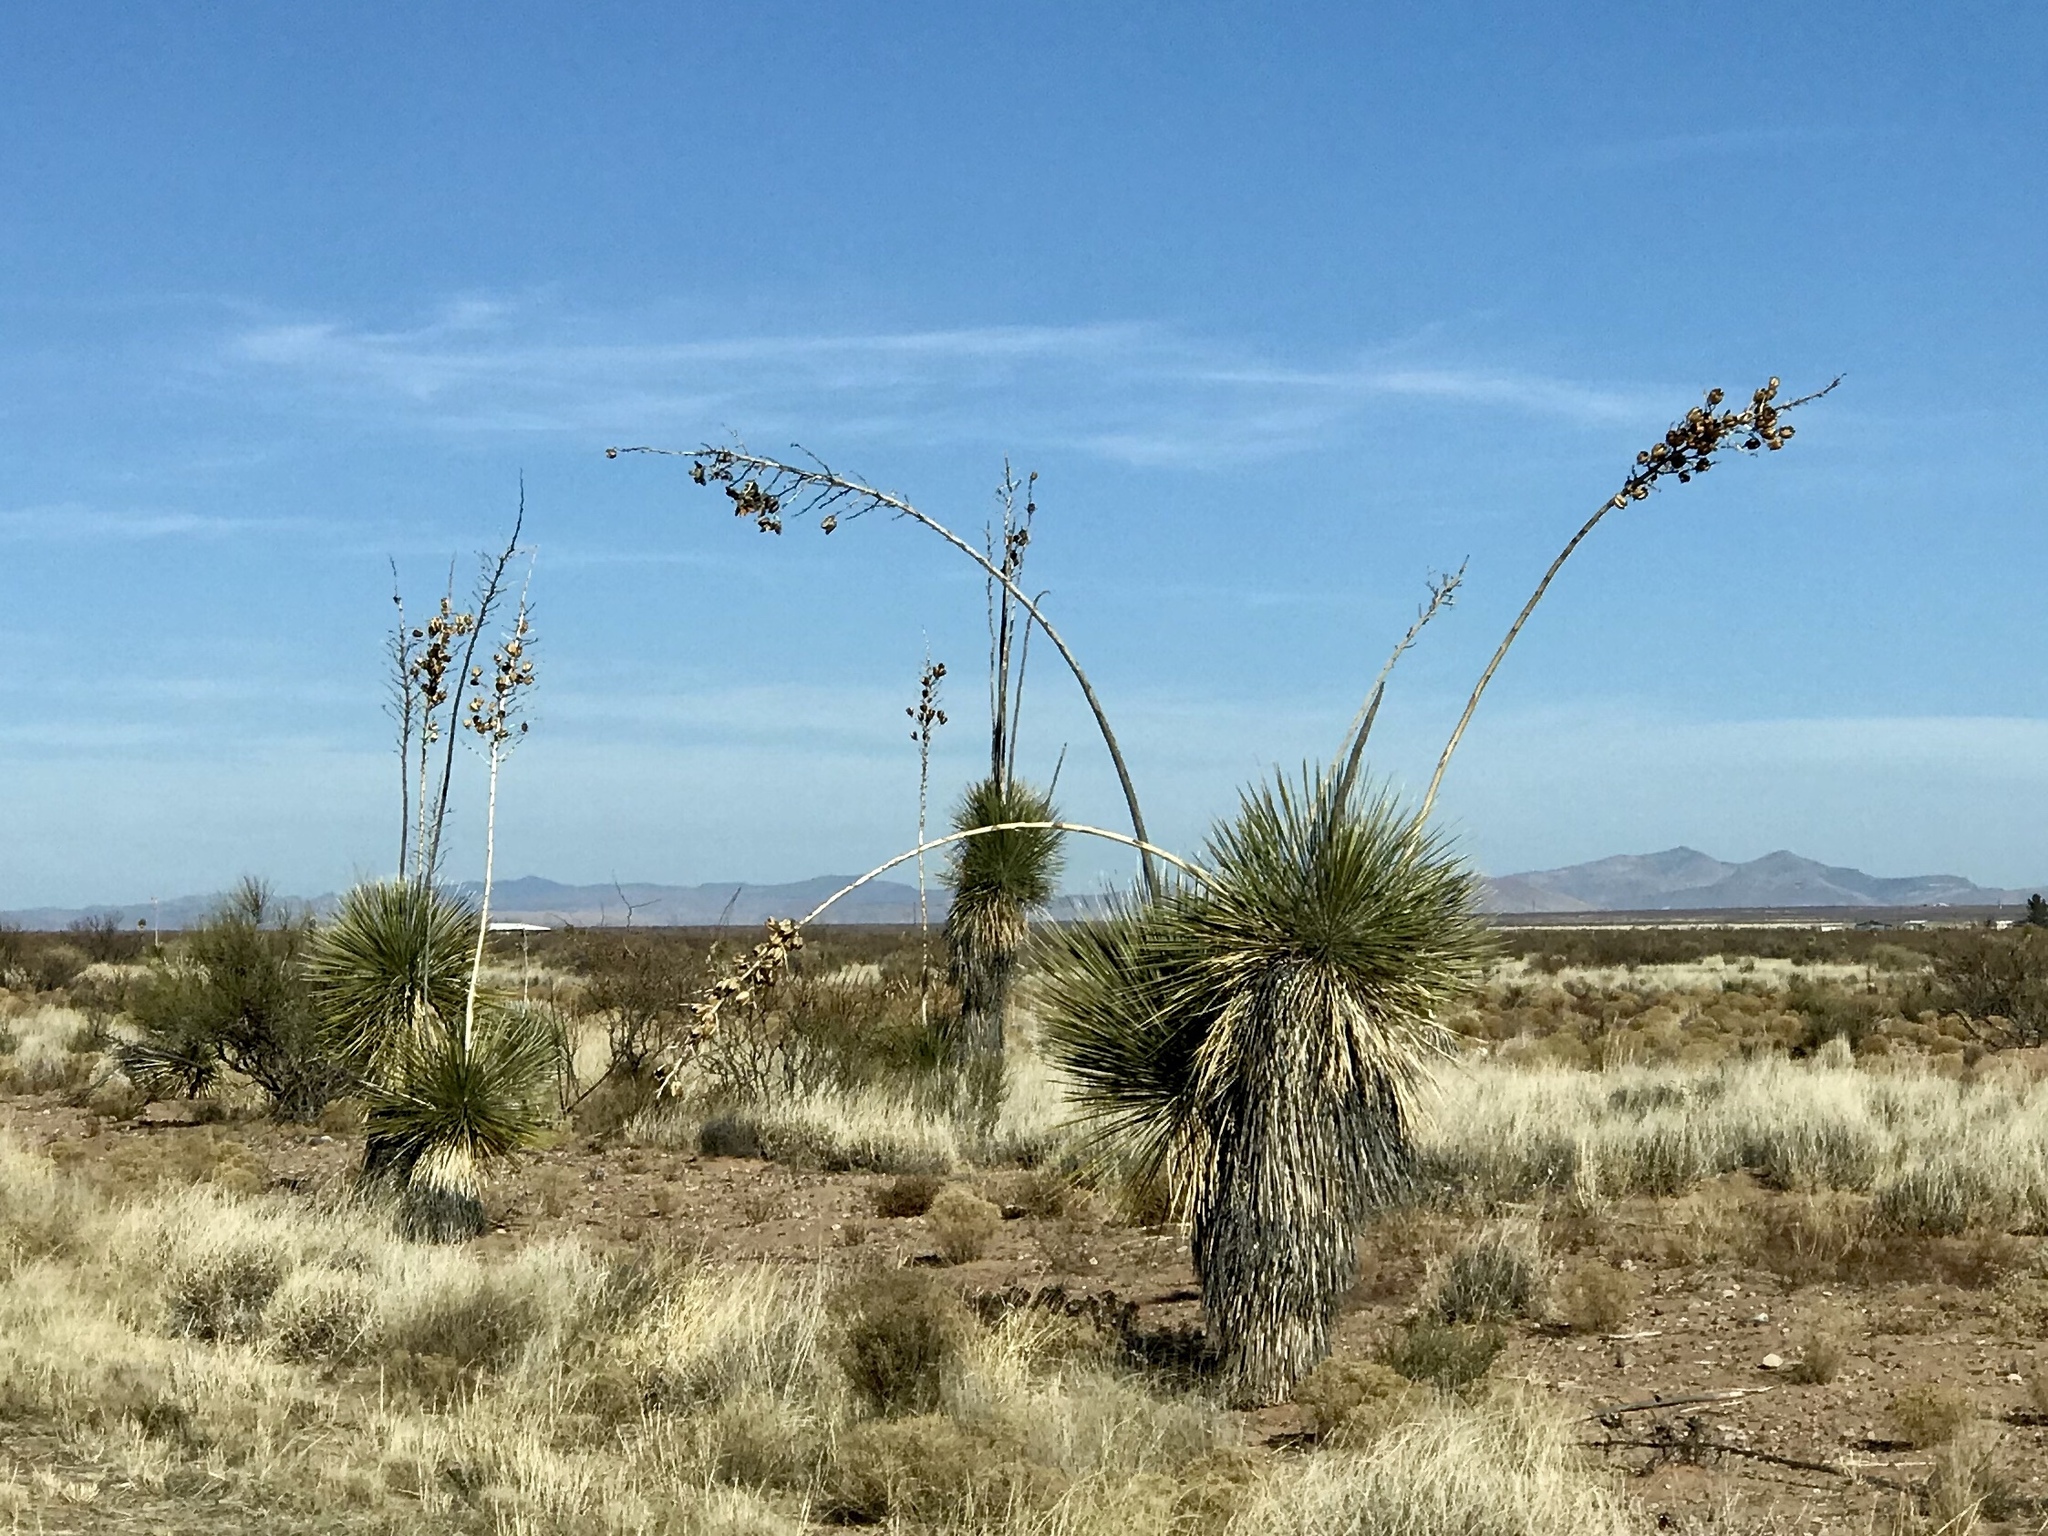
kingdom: Plantae
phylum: Tracheophyta
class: Liliopsida
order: Asparagales
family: Asparagaceae
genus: Yucca
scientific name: Yucca elata
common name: Palmella
